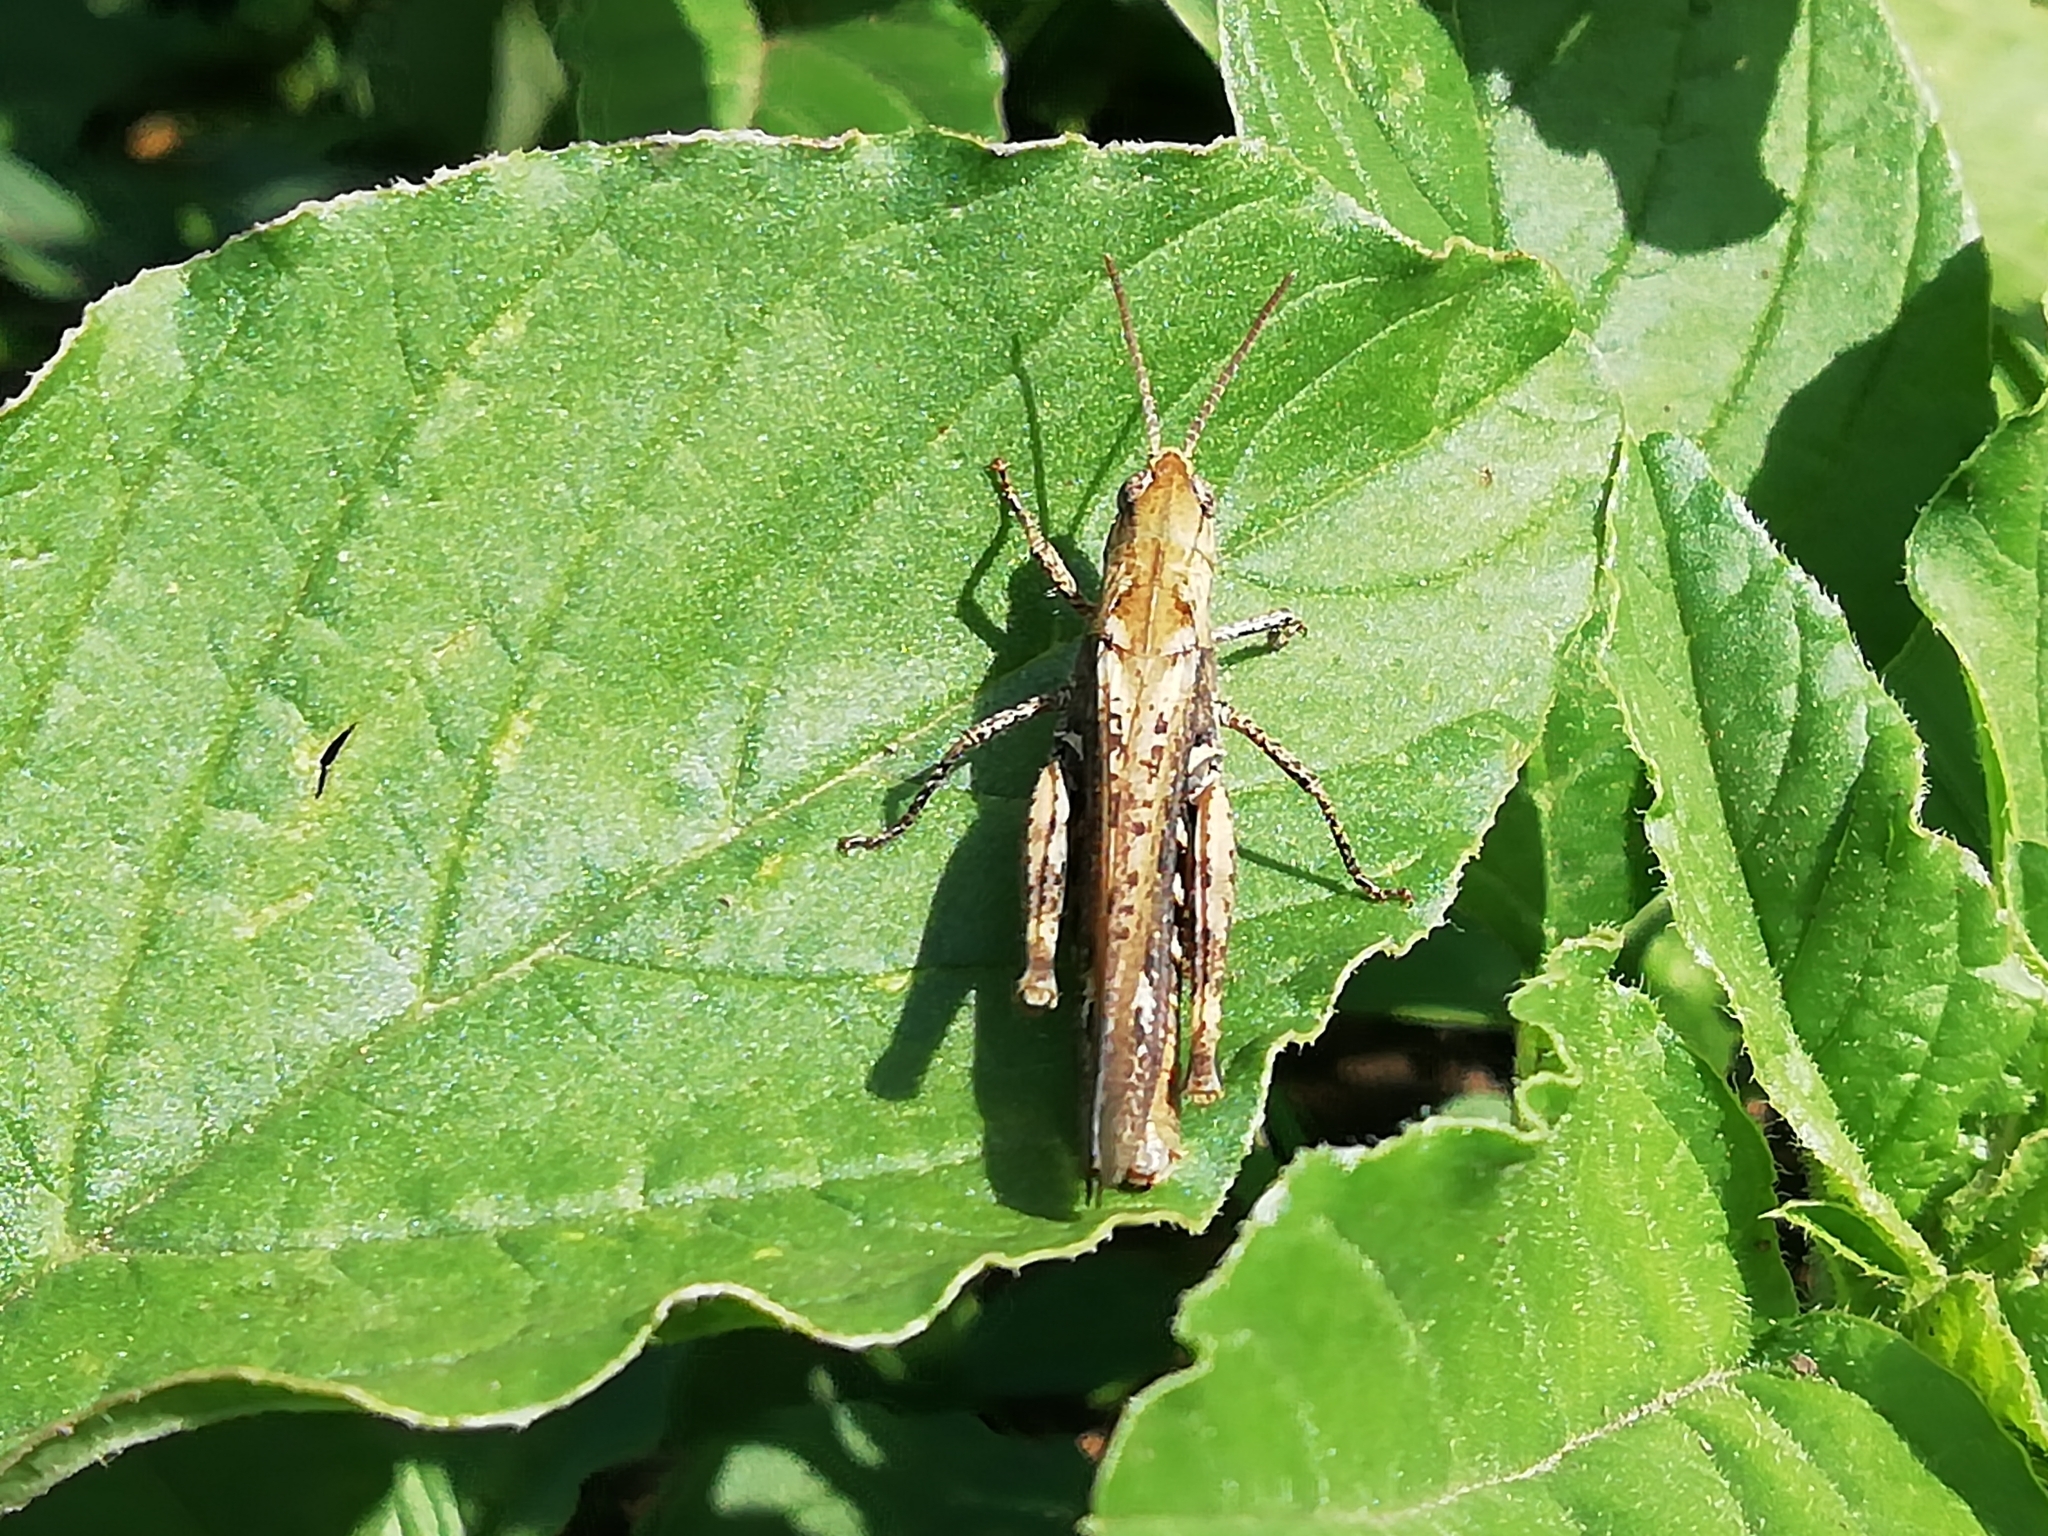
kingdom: Animalia
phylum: Arthropoda
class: Insecta
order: Orthoptera
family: Acrididae
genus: Chorthippus
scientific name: Chorthippus biguttulus
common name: Bow-winged grasshopper
